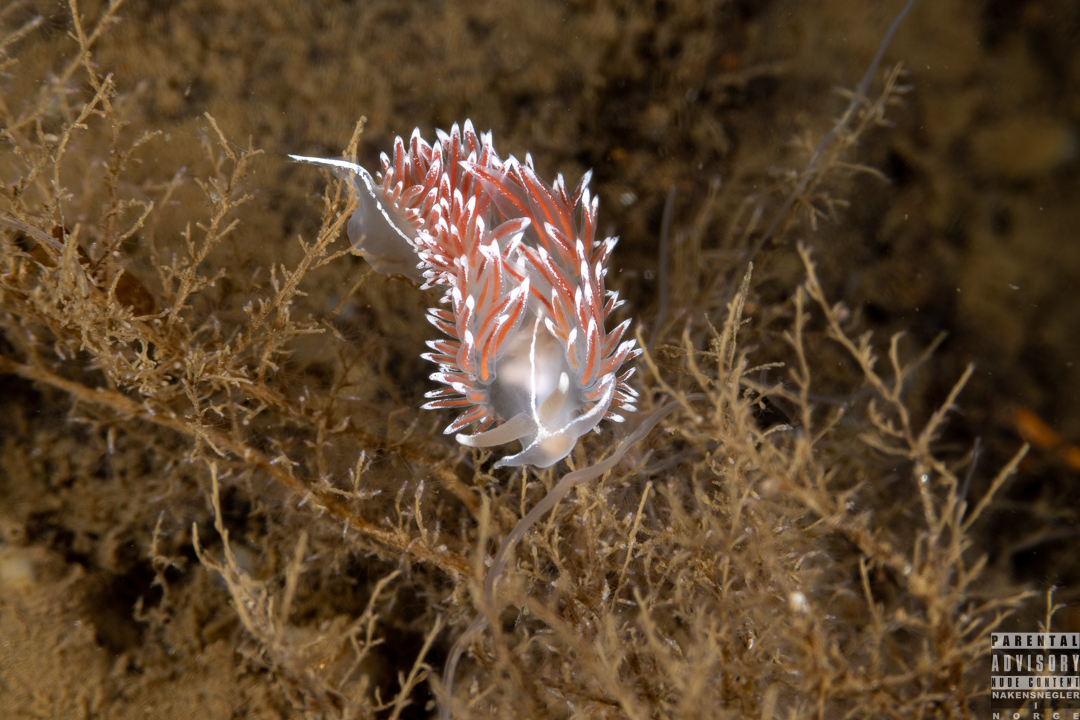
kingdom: Animalia
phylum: Mollusca
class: Gastropoda
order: Nudibranchia
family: Coryphellidae
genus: Coryphella
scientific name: Coryphella lineata
